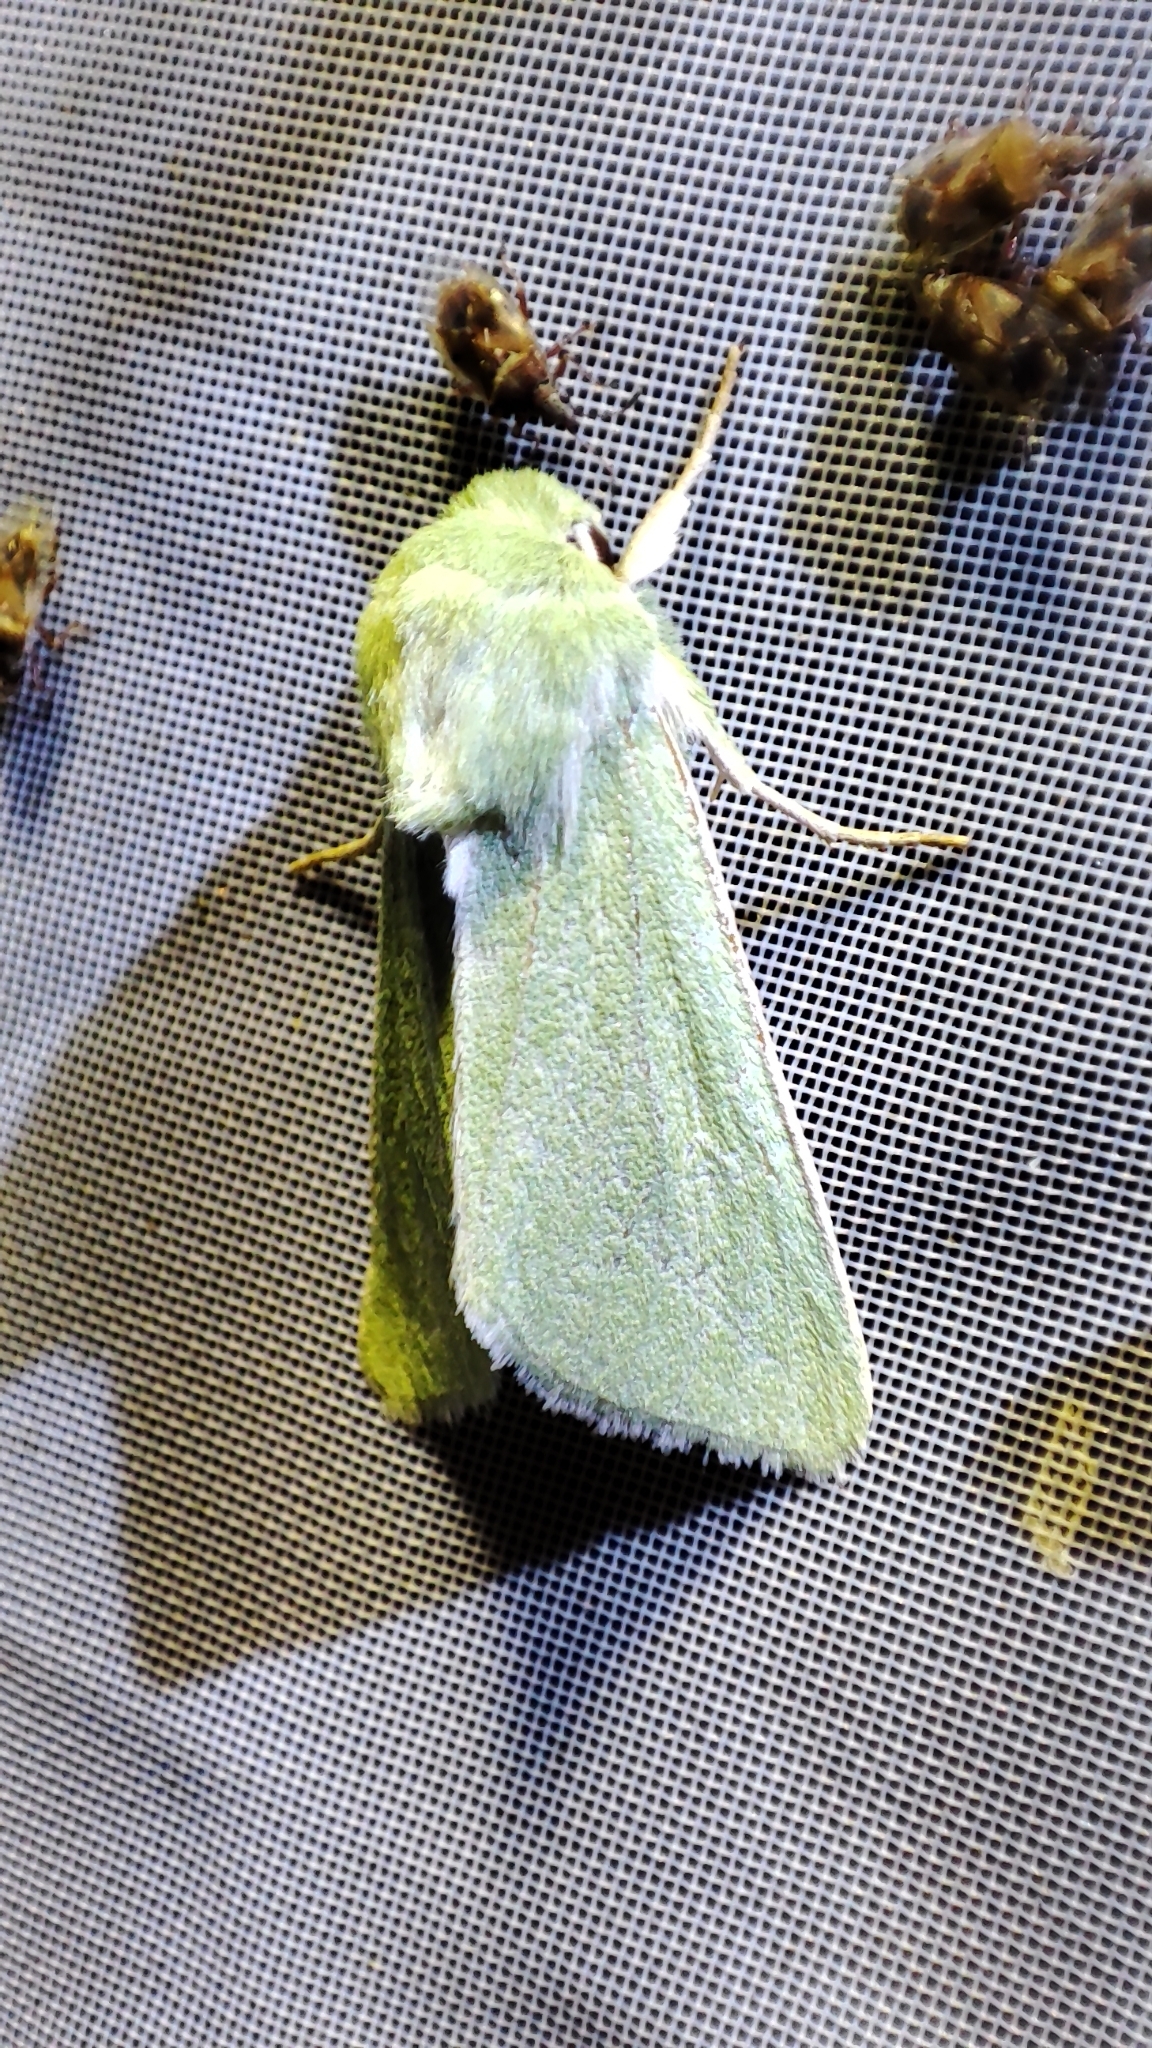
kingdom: Animalia
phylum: Arthropoda
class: Insecta
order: Lepidoptera
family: Noctuidae
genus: Calamia
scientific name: Calamia tridens
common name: Burren green
